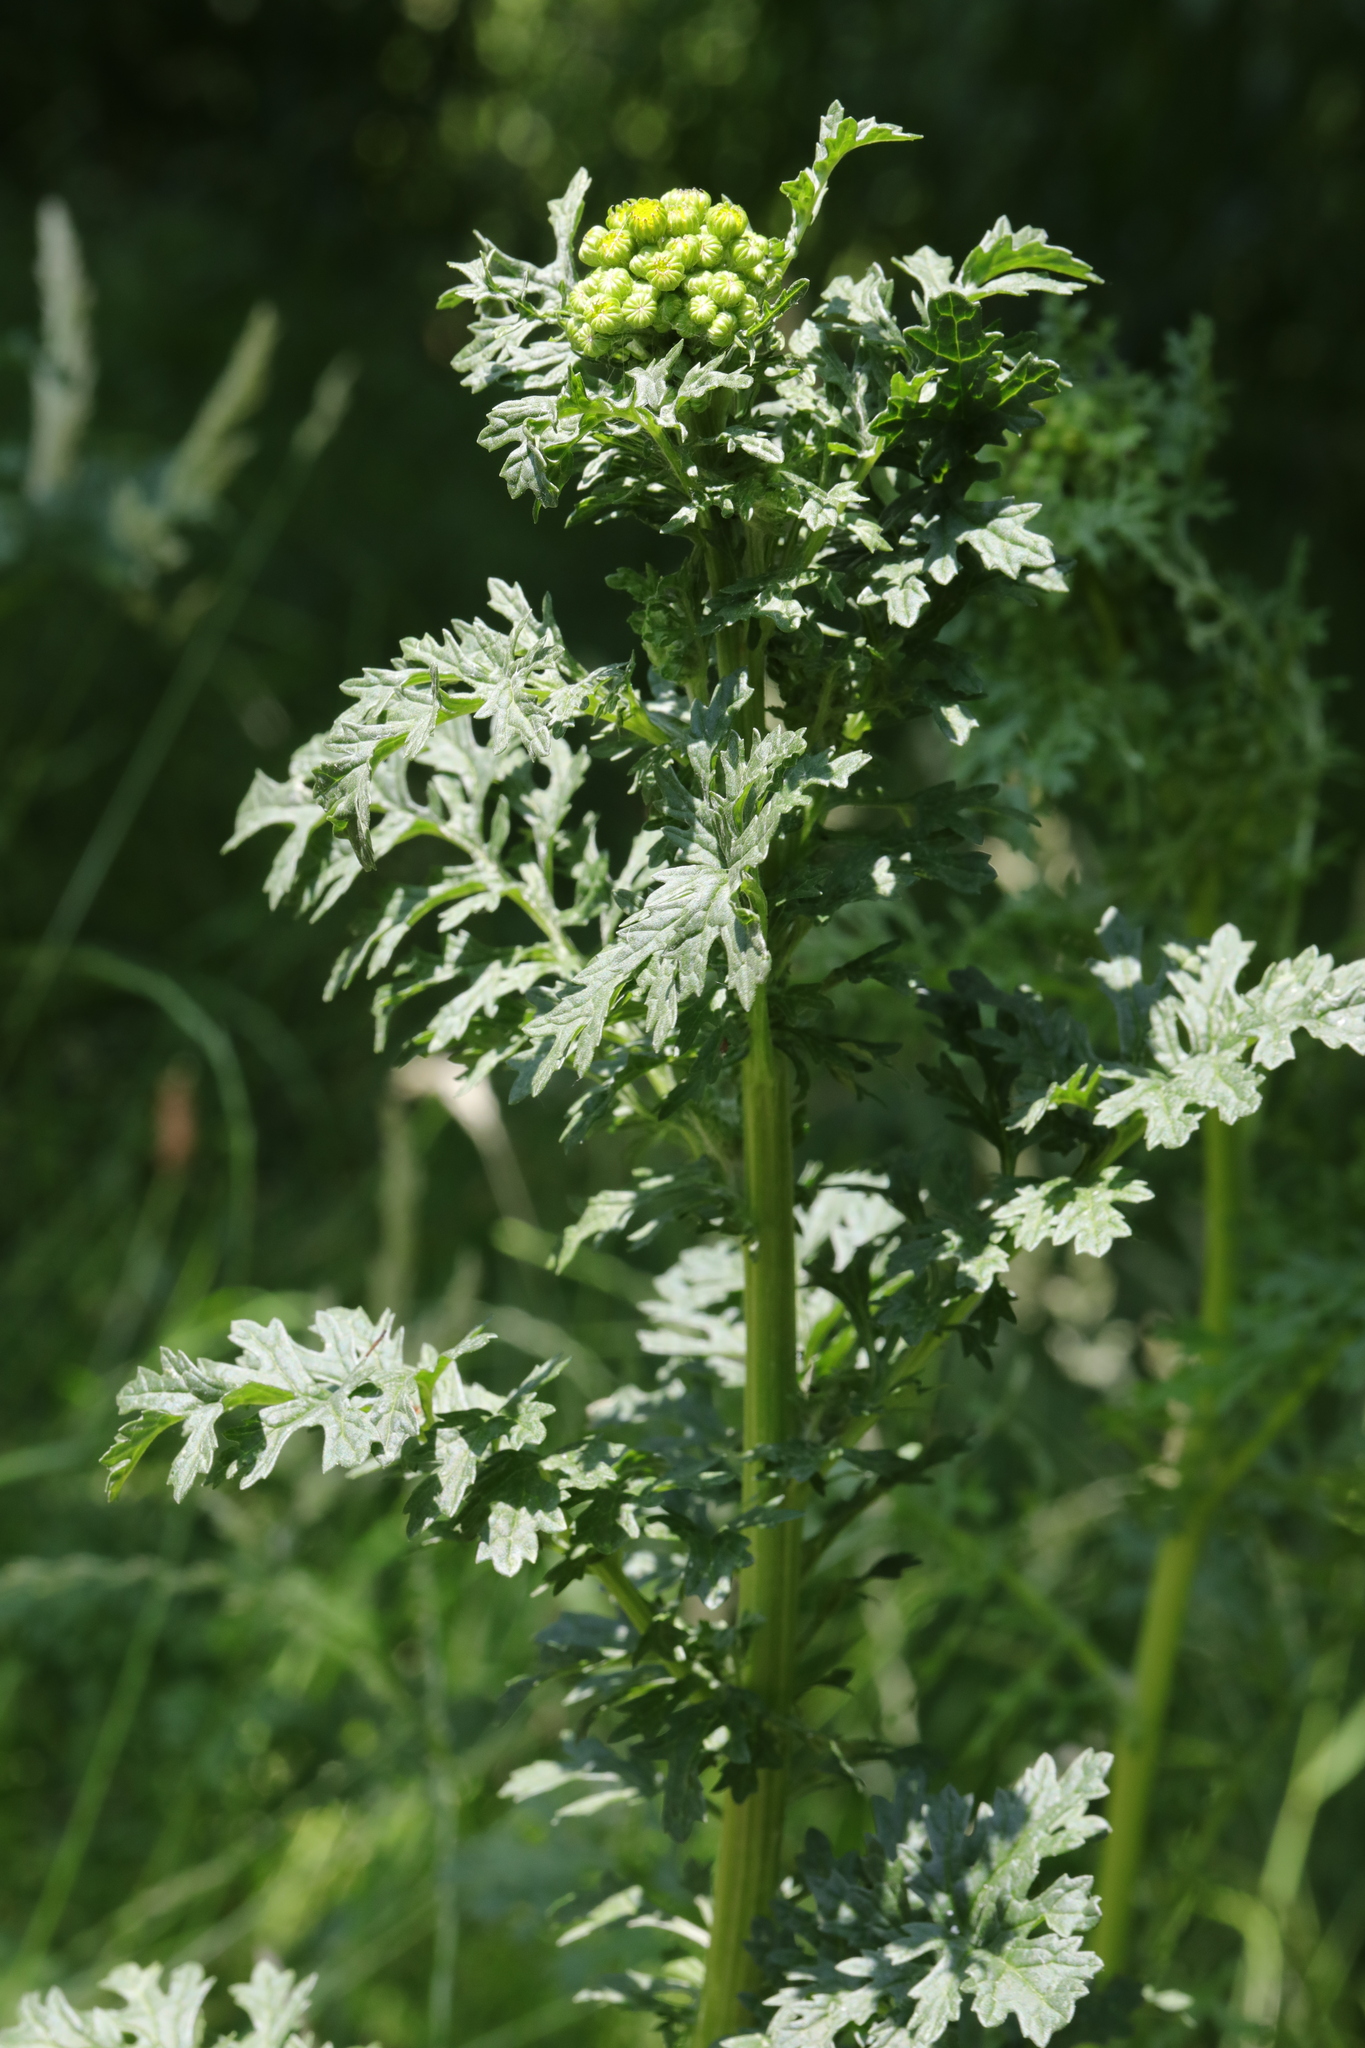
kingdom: Plantae
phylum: Tracheophyta
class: Magnoliopsida
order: Asterales
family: Asteraceae
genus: Jacobaea
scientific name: Jacobaea vulgaris
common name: Stinking willie
